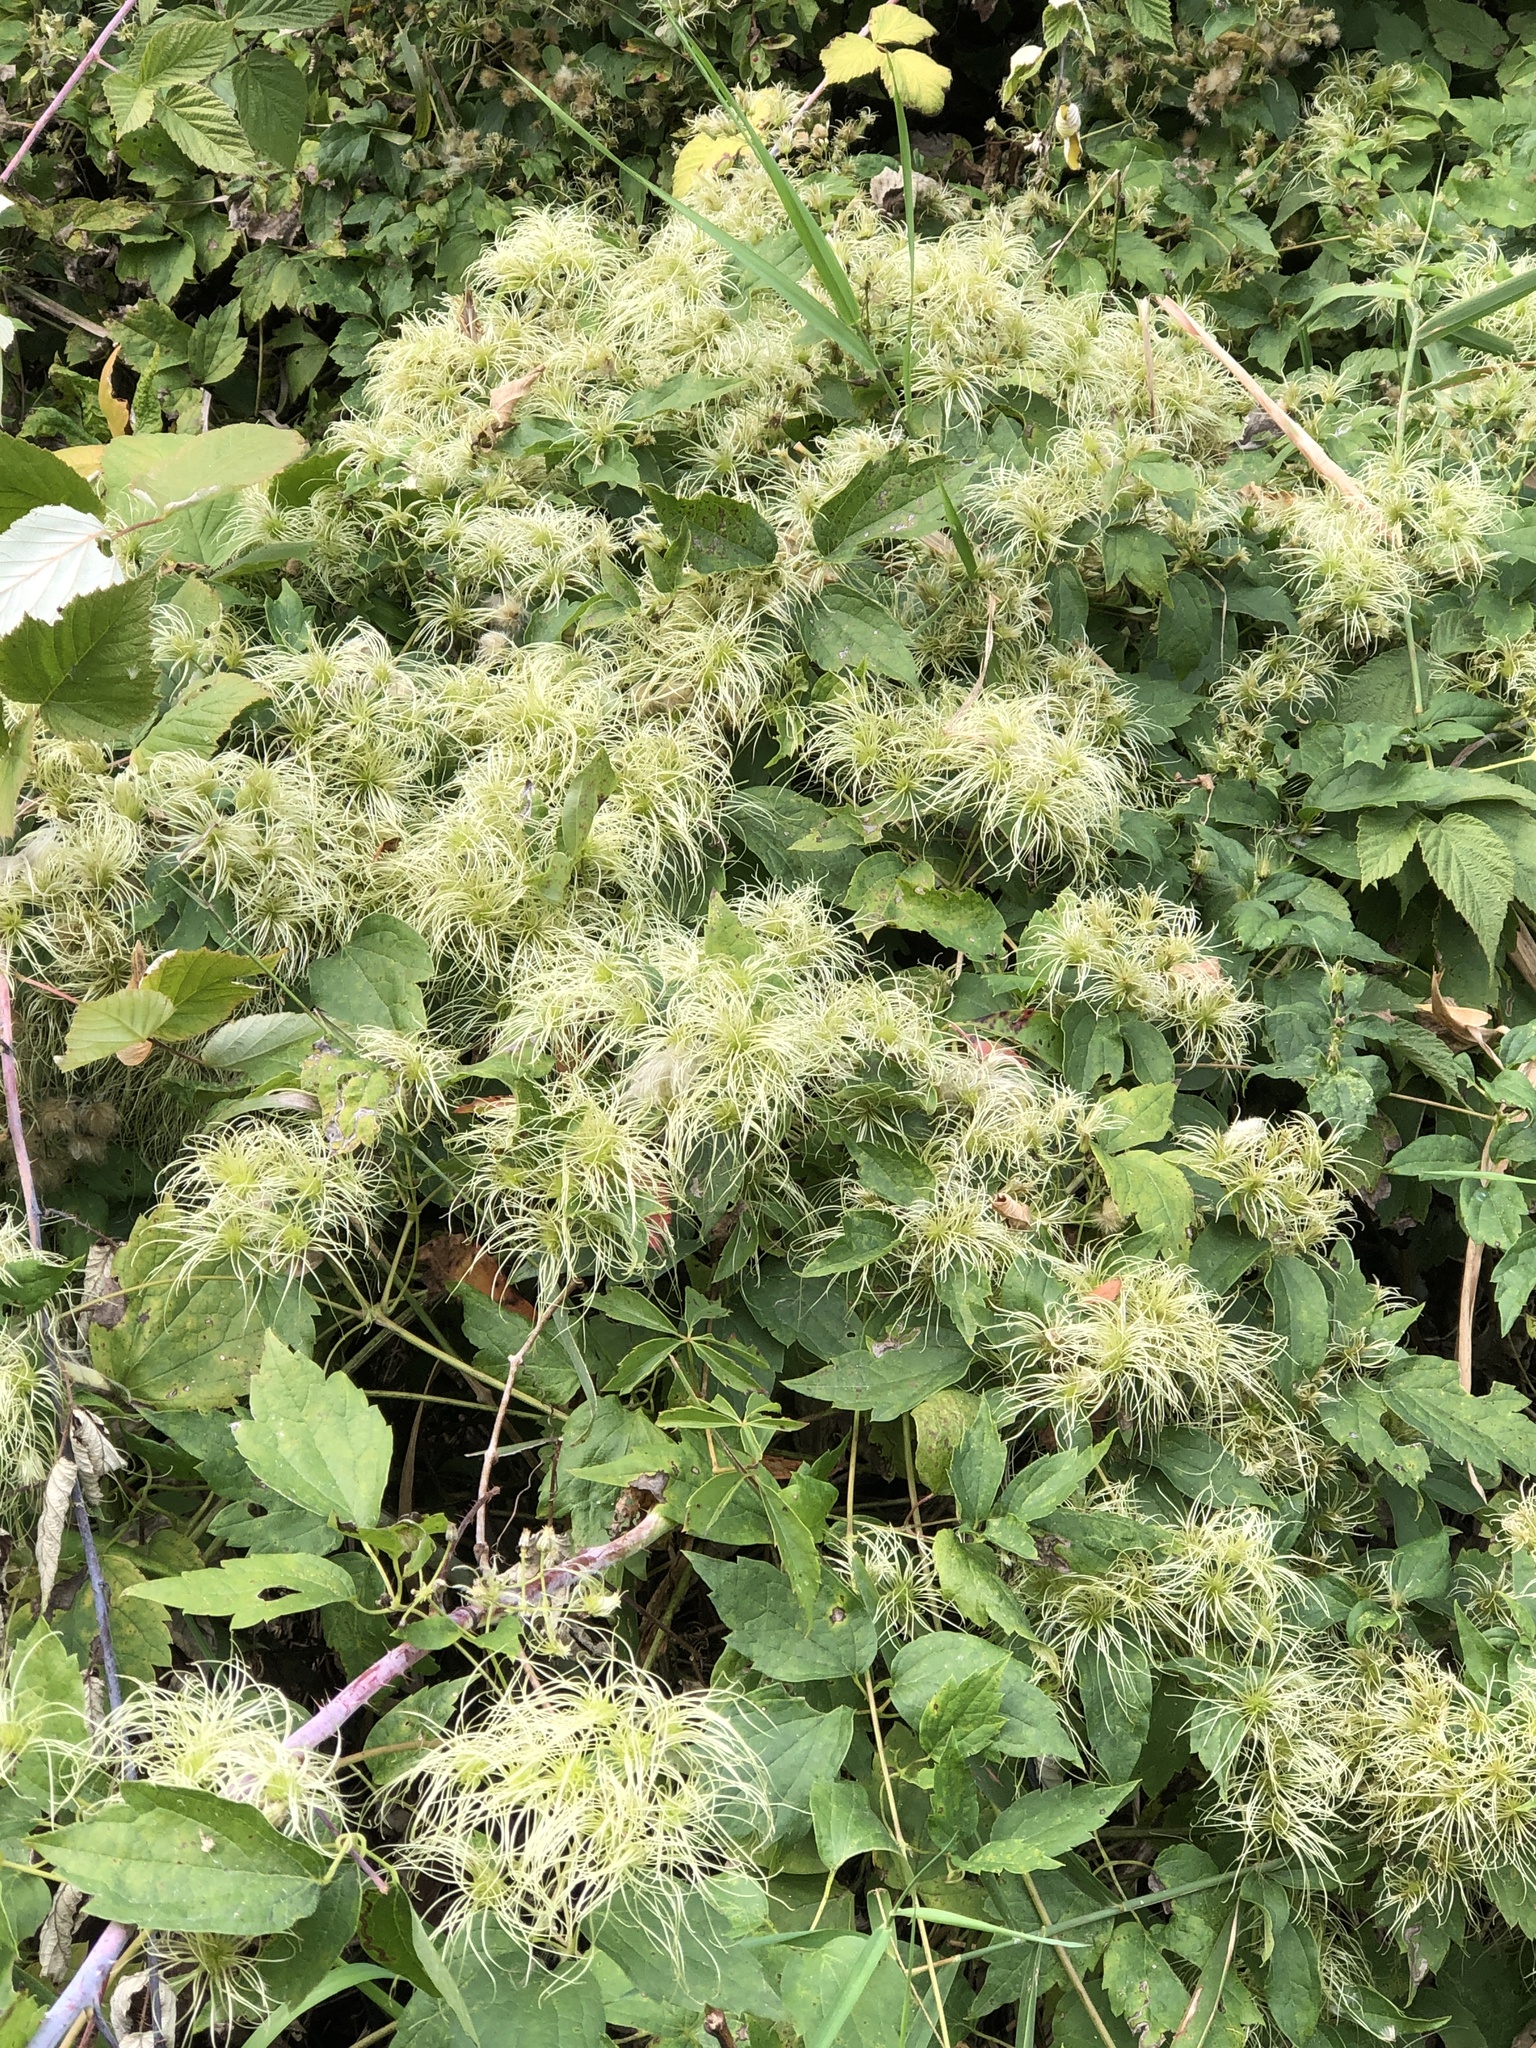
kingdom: Plantae
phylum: Tracheophyta
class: Magnoliopsida
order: Ranunculales
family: Ranunculaceae
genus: Clematis
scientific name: Clematis virginiana
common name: Virgin's-bower
